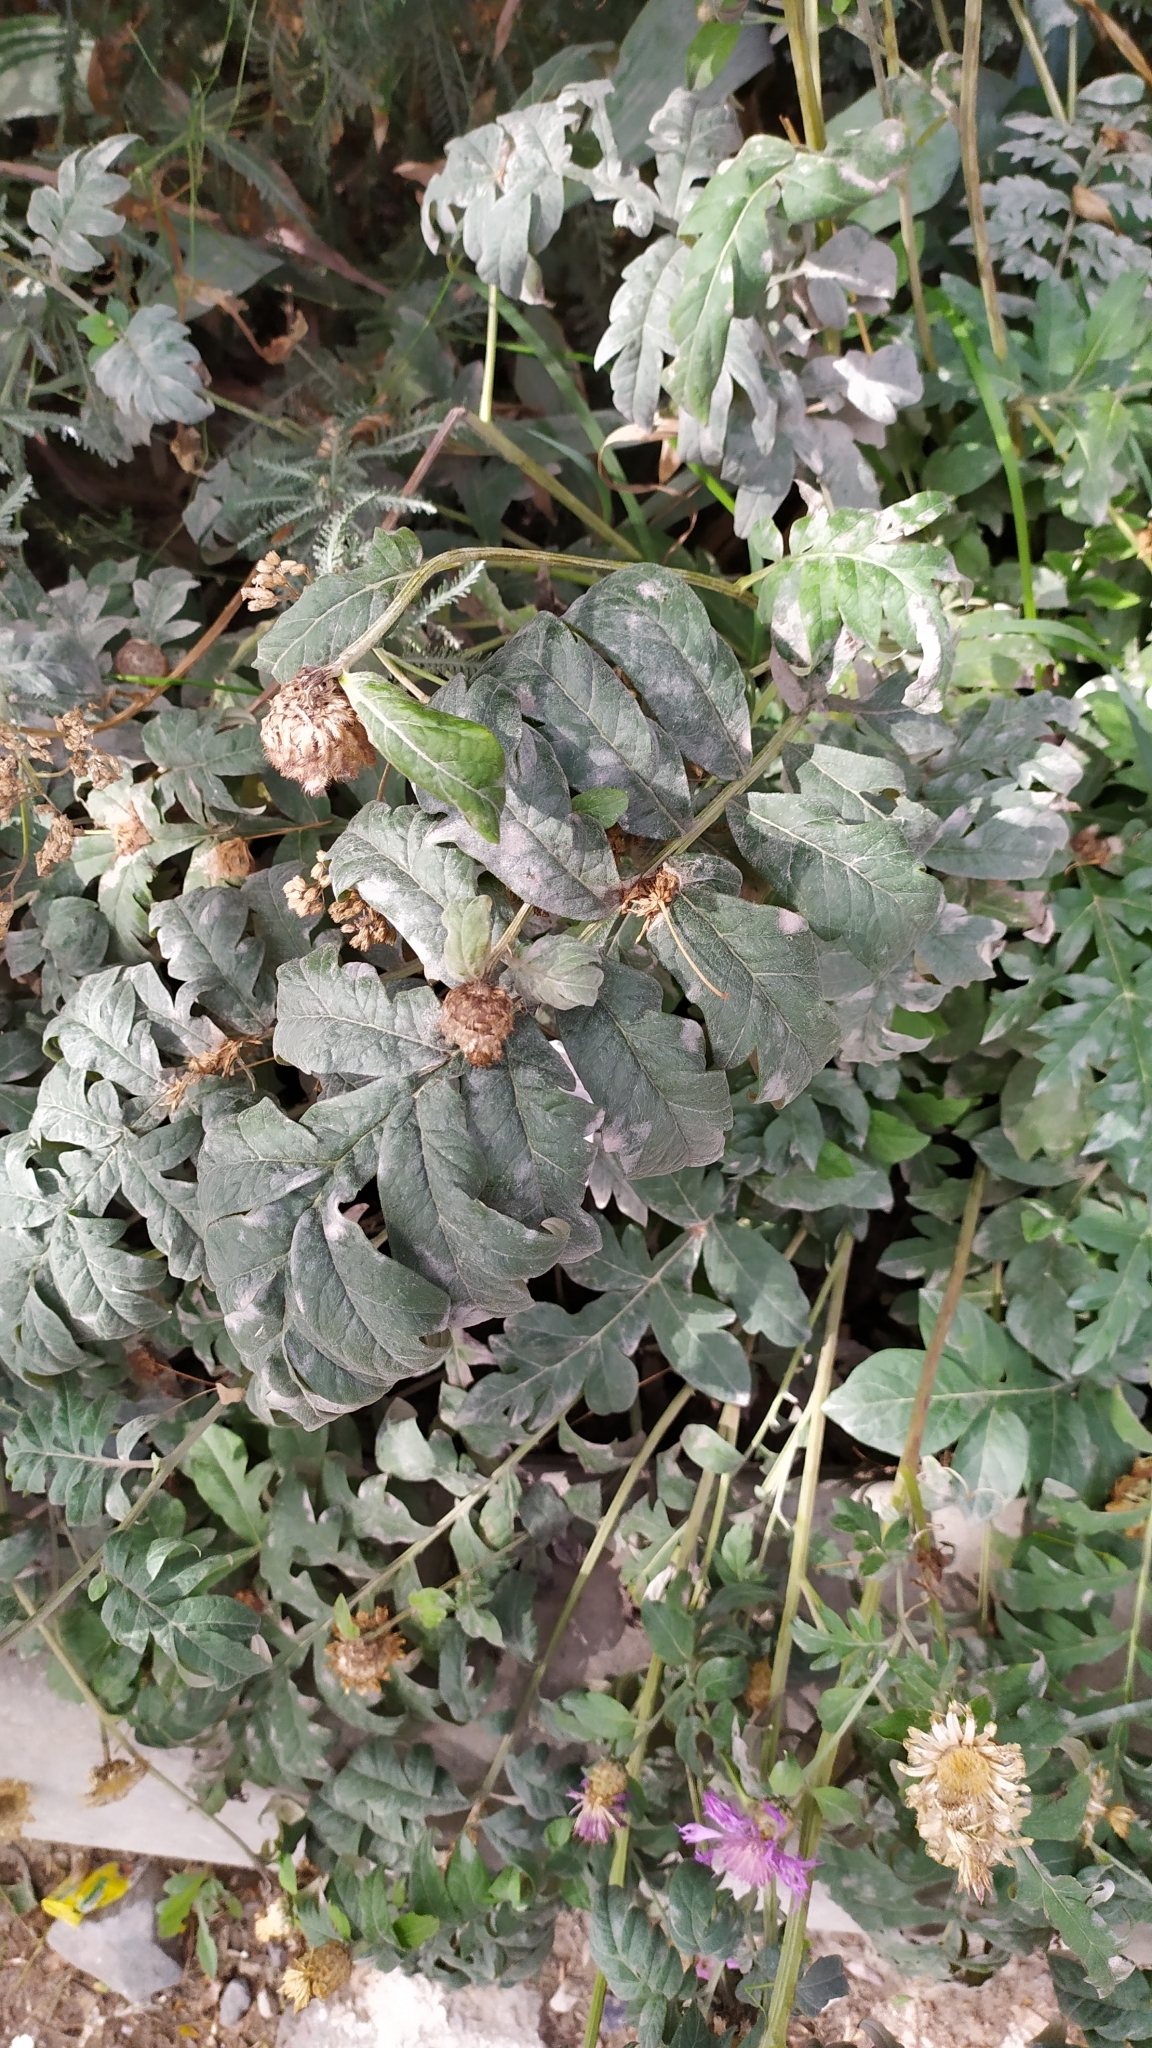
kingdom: Plantae
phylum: Tracheophyta
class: Magnoliopsida
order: Asterales
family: Asteraceae
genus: Psephellus
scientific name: Psephellus dealbatus
